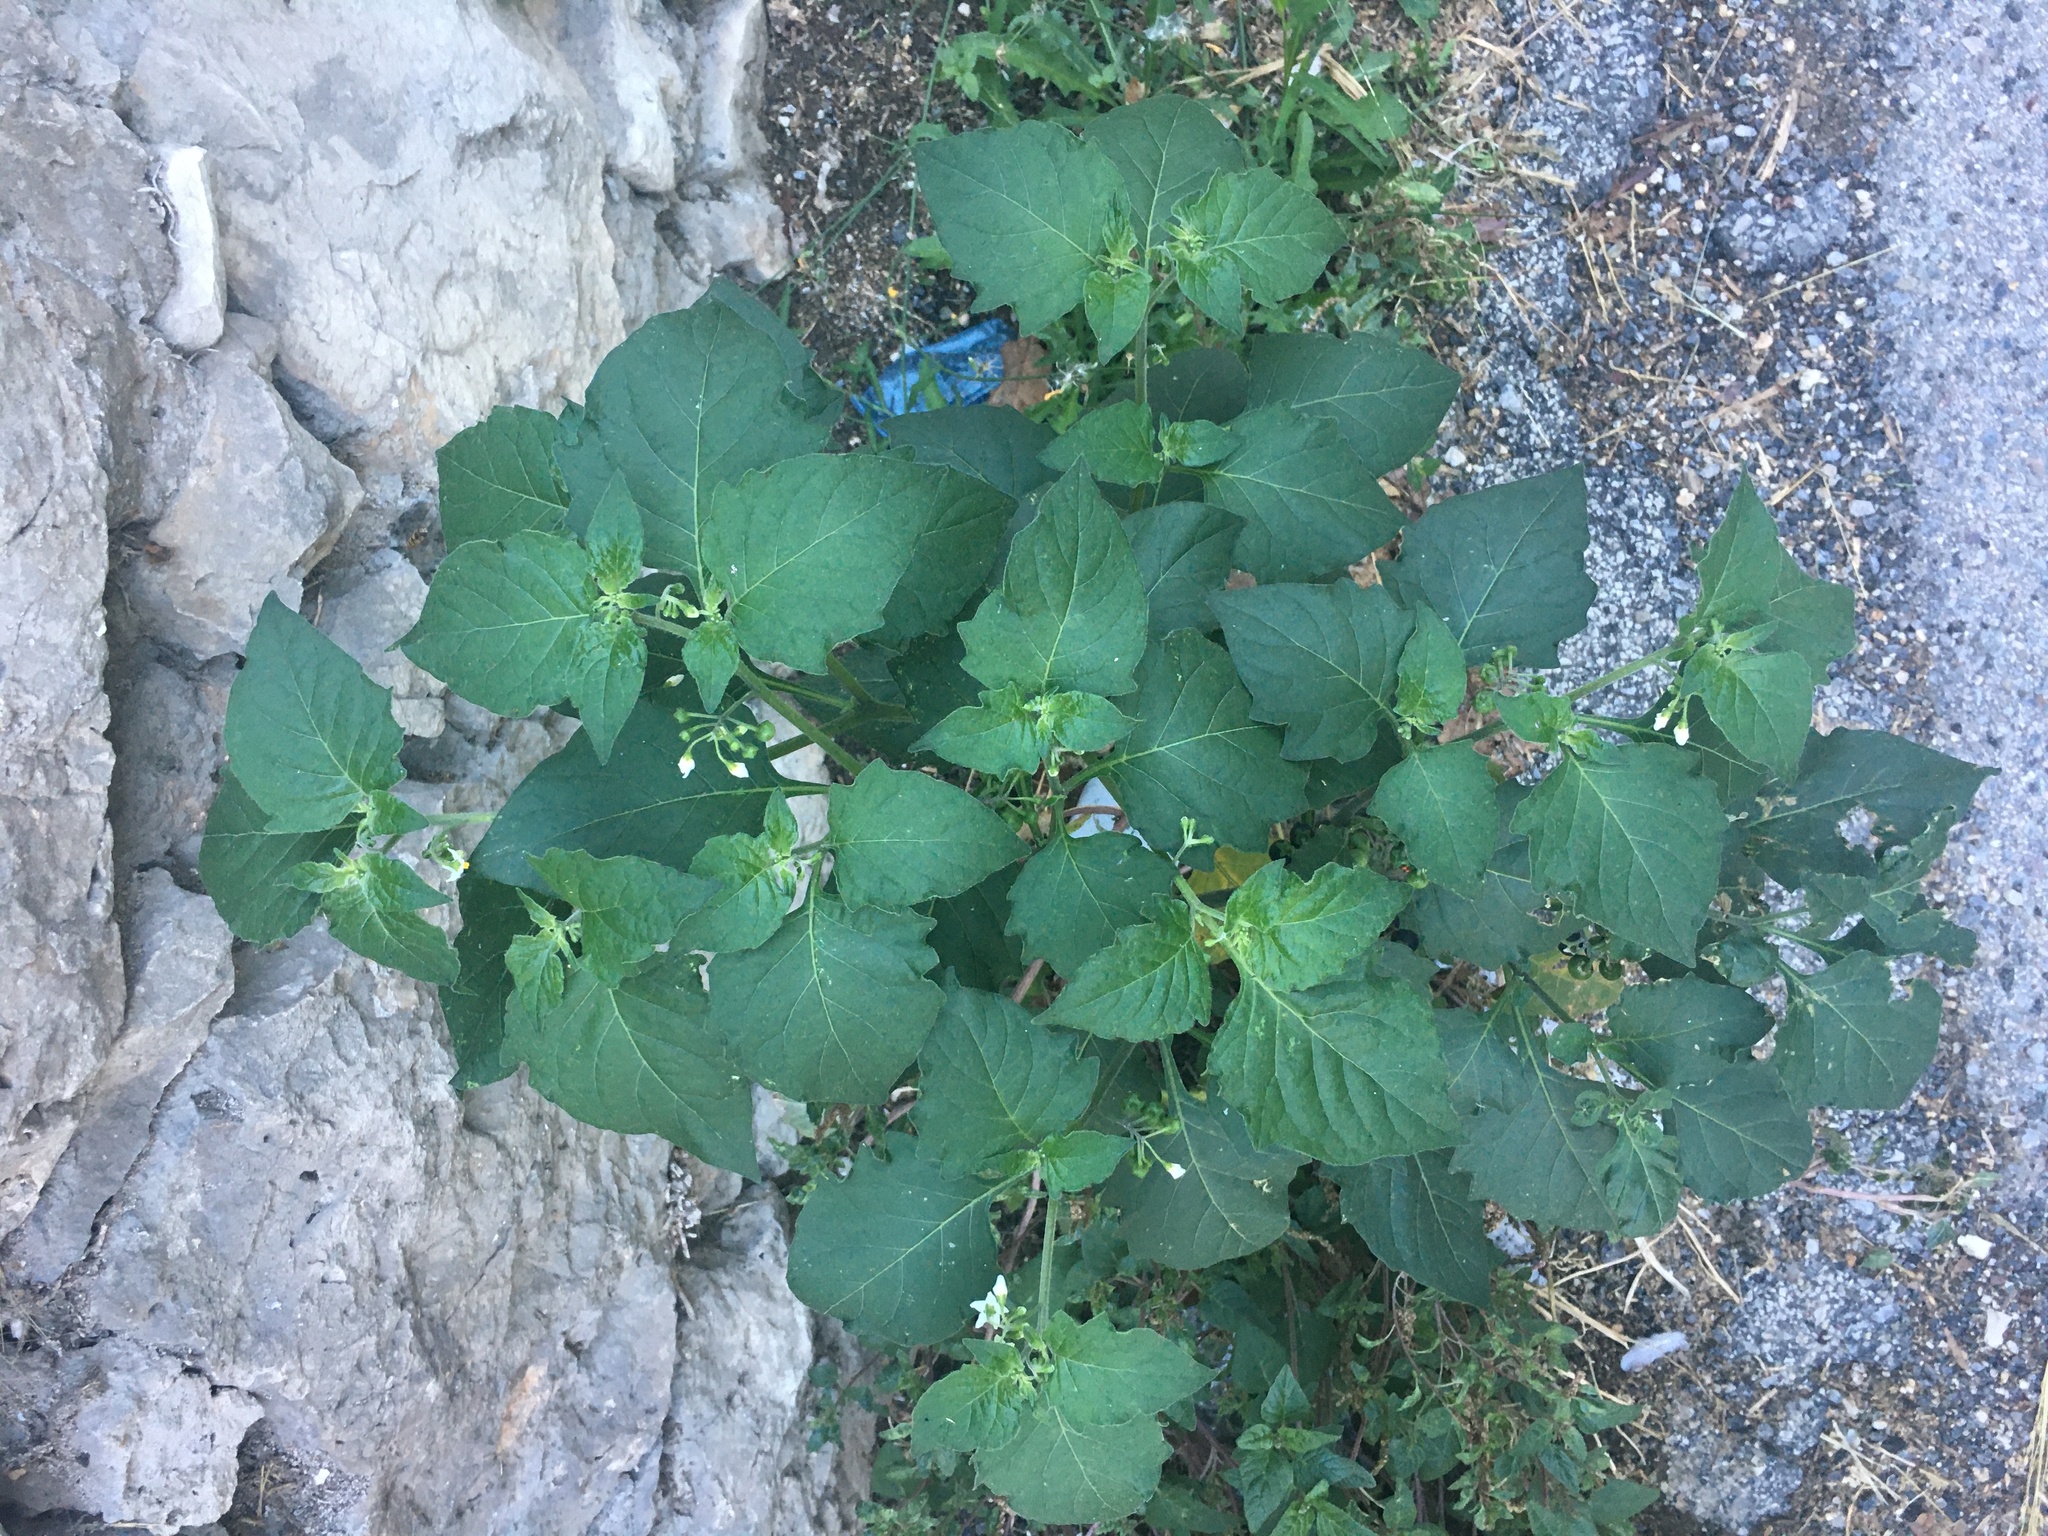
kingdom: Plantae
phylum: Tracheophyta
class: Magnoliopsida
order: Solanales
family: Solanaceae
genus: Solanum
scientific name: Solanum nigrum
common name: Black nightshade
